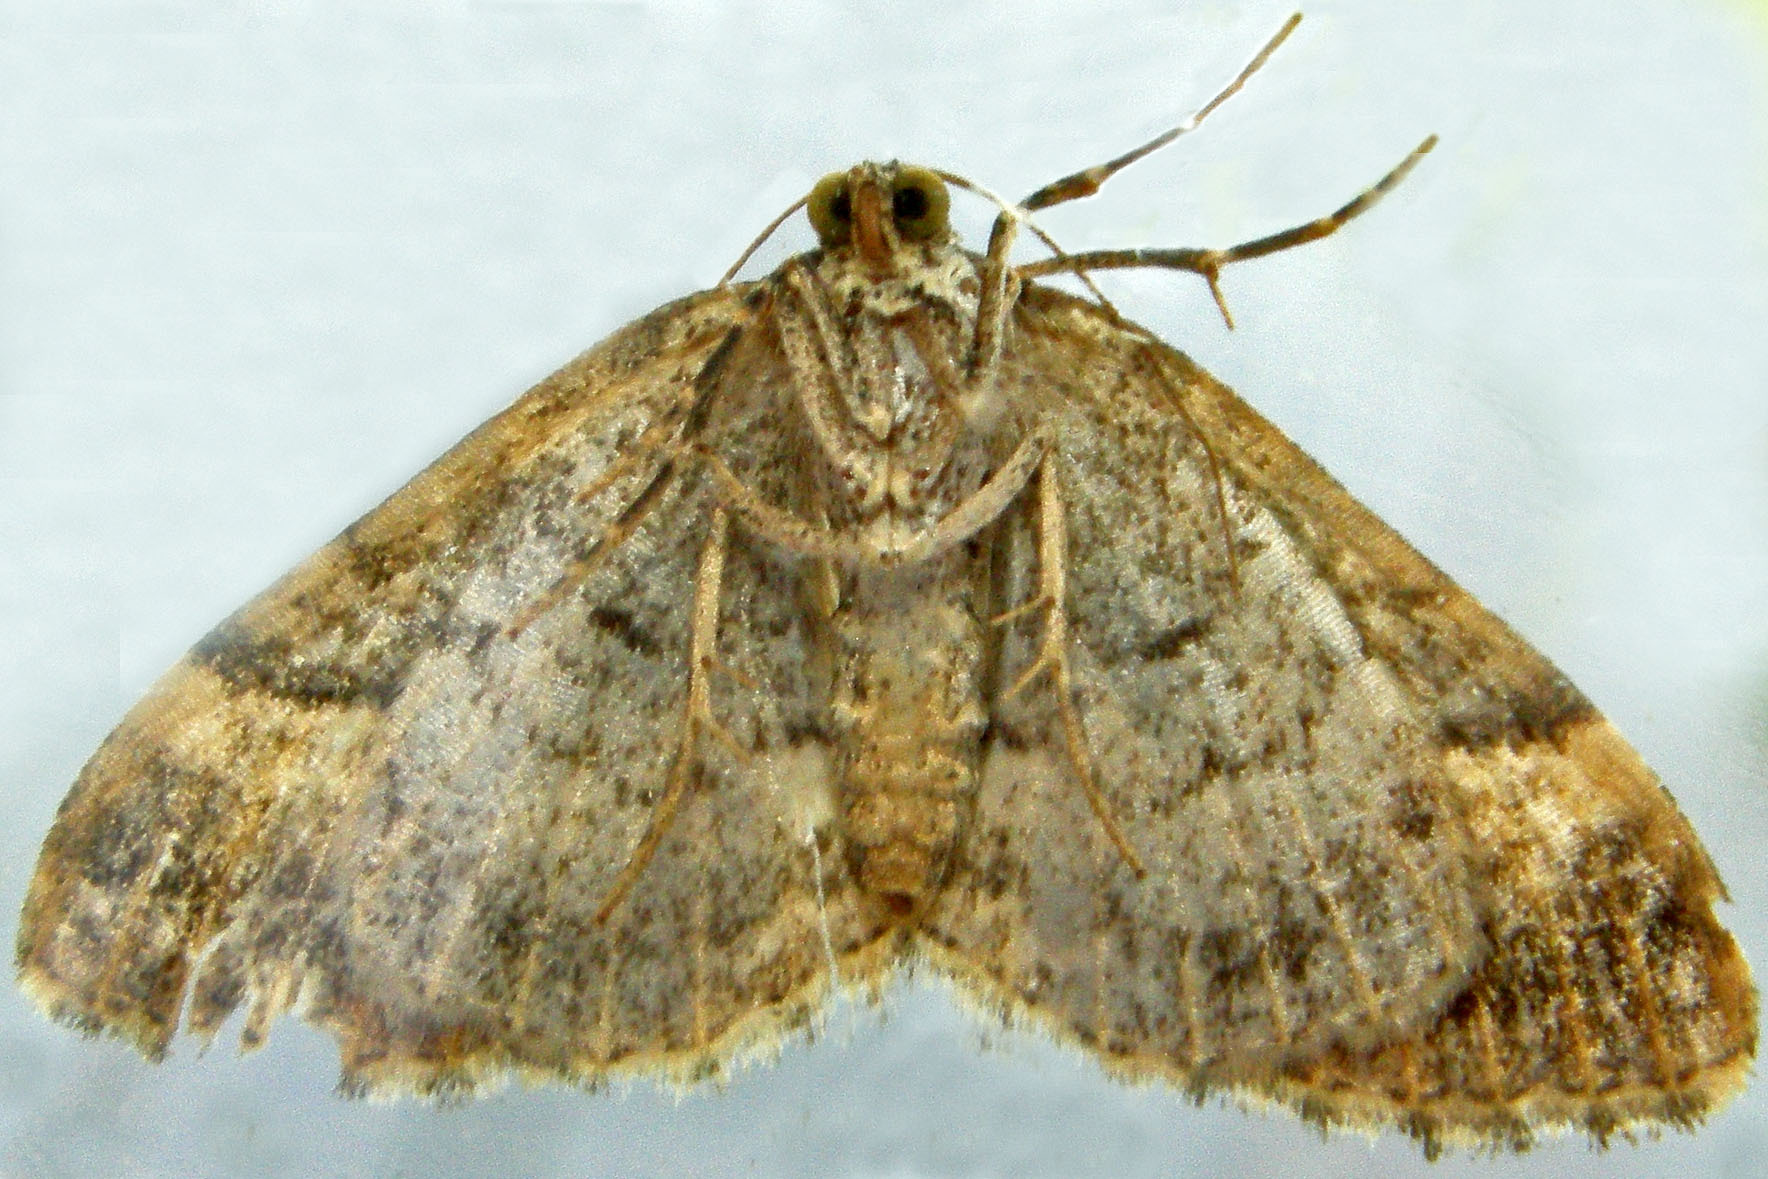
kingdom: Animalia
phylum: Arthropoda
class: Insecta
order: Lepidoptera
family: Geometridae
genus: Xanthorhoe
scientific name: Xanthorhoe lacustrata
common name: Toothed brown carpet
